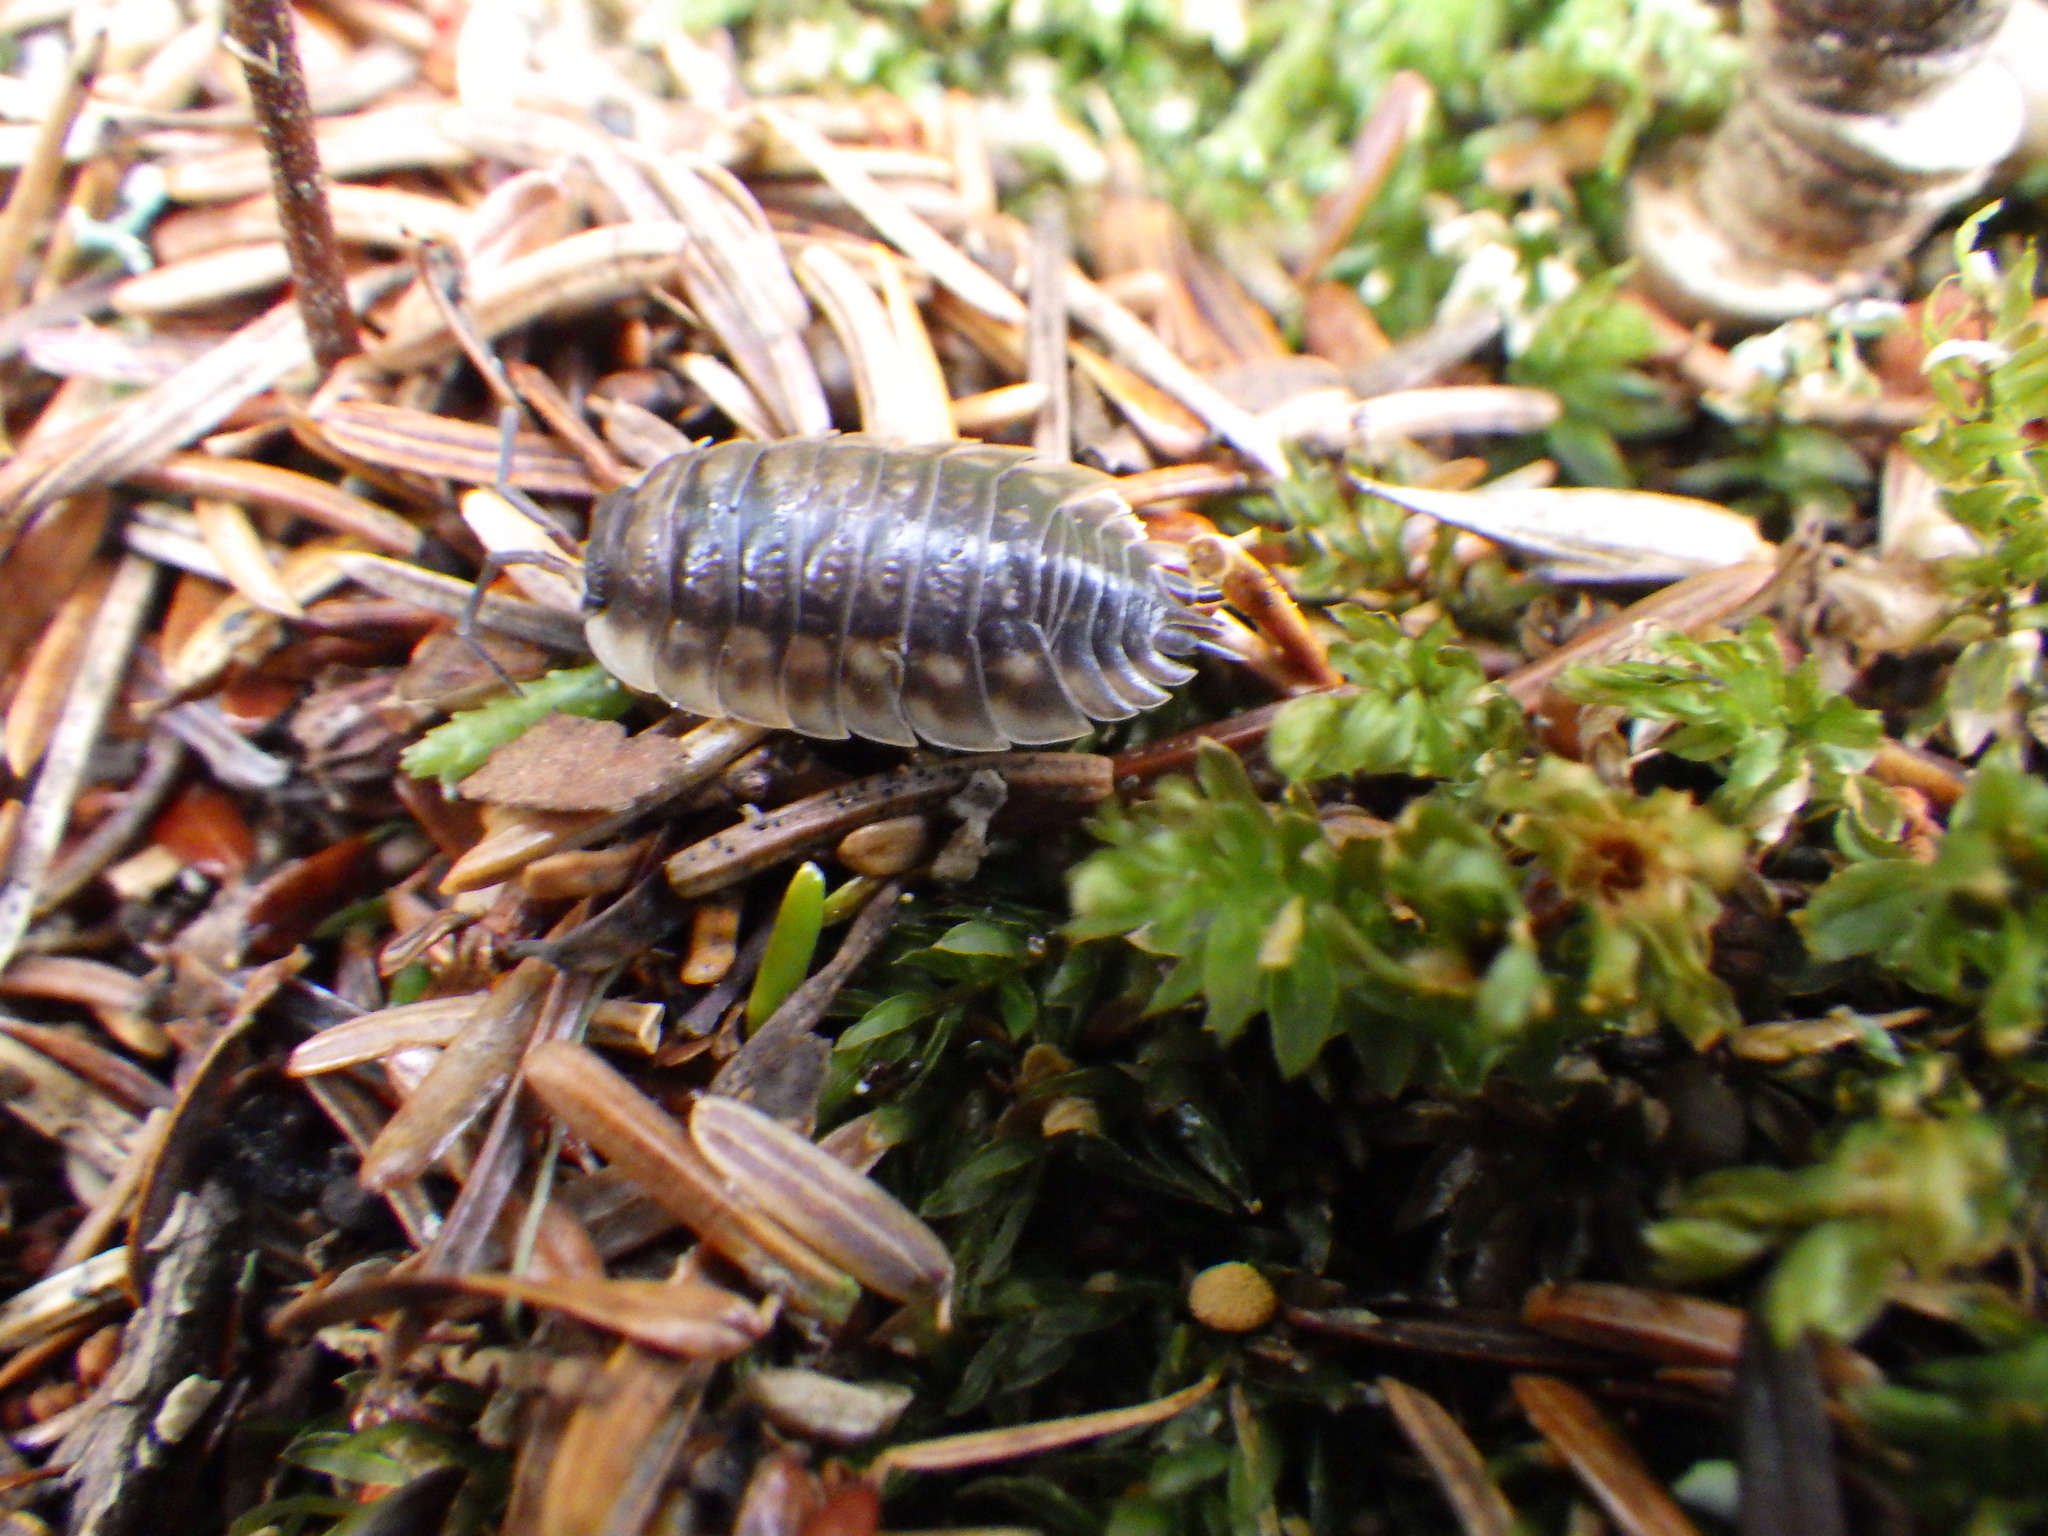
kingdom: Animalia
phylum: Arthropoda
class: Malacostraca
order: Isopoda
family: Oniscidae
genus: Oniscus
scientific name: Oniscus asellus
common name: Common shiny woodlouse
